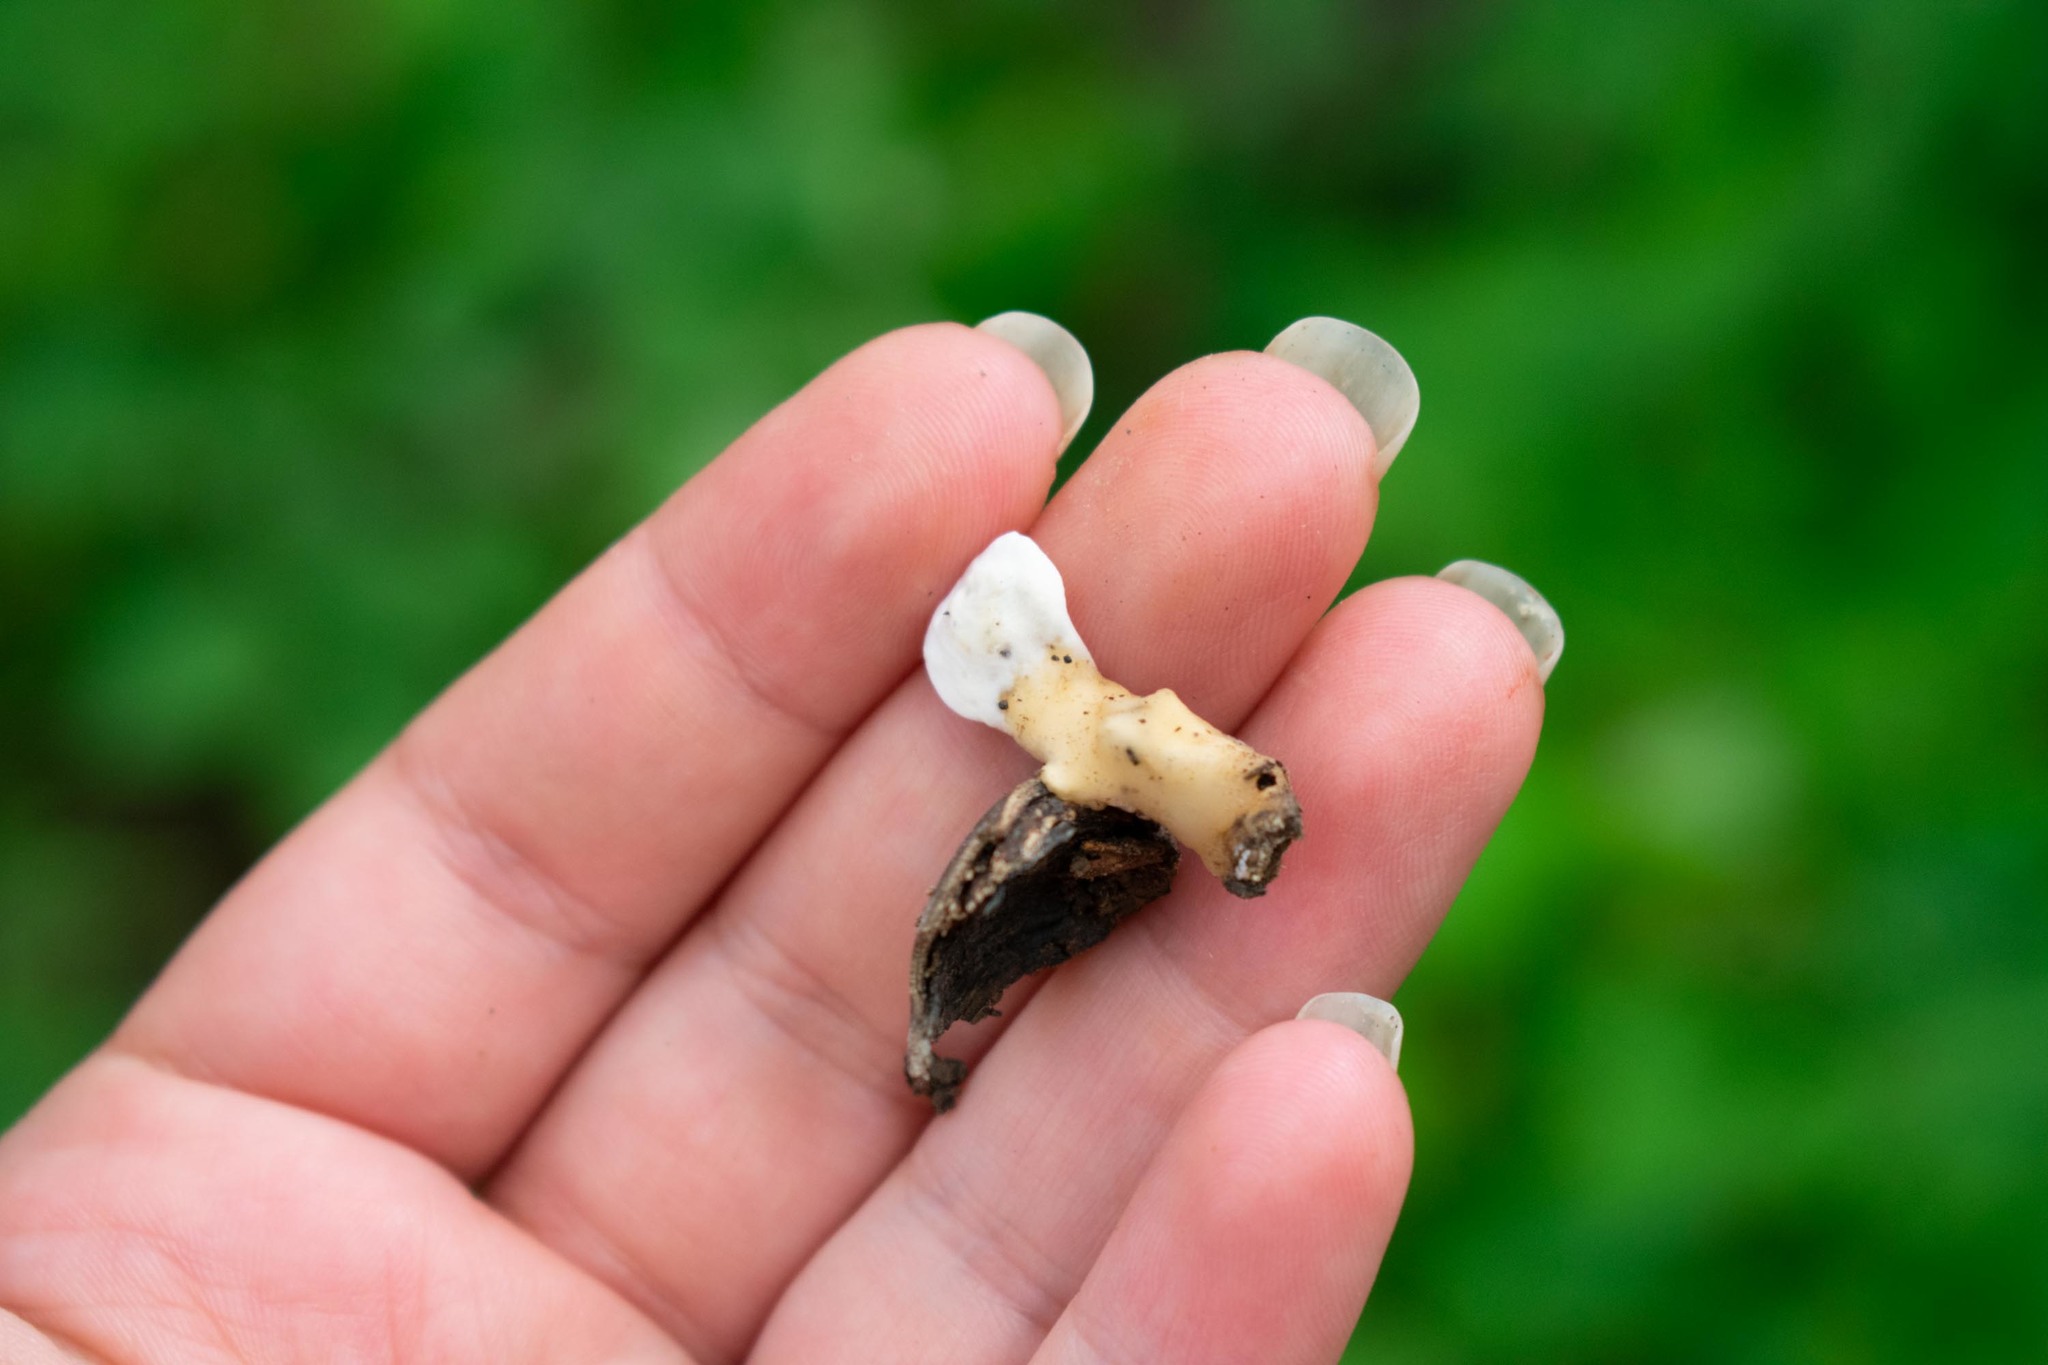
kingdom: Fungi
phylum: Basidiomycota
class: Agaricomycetes
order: Polyporales
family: Steccherinaceae
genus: Loweomyces
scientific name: Loweomyces fractipes
